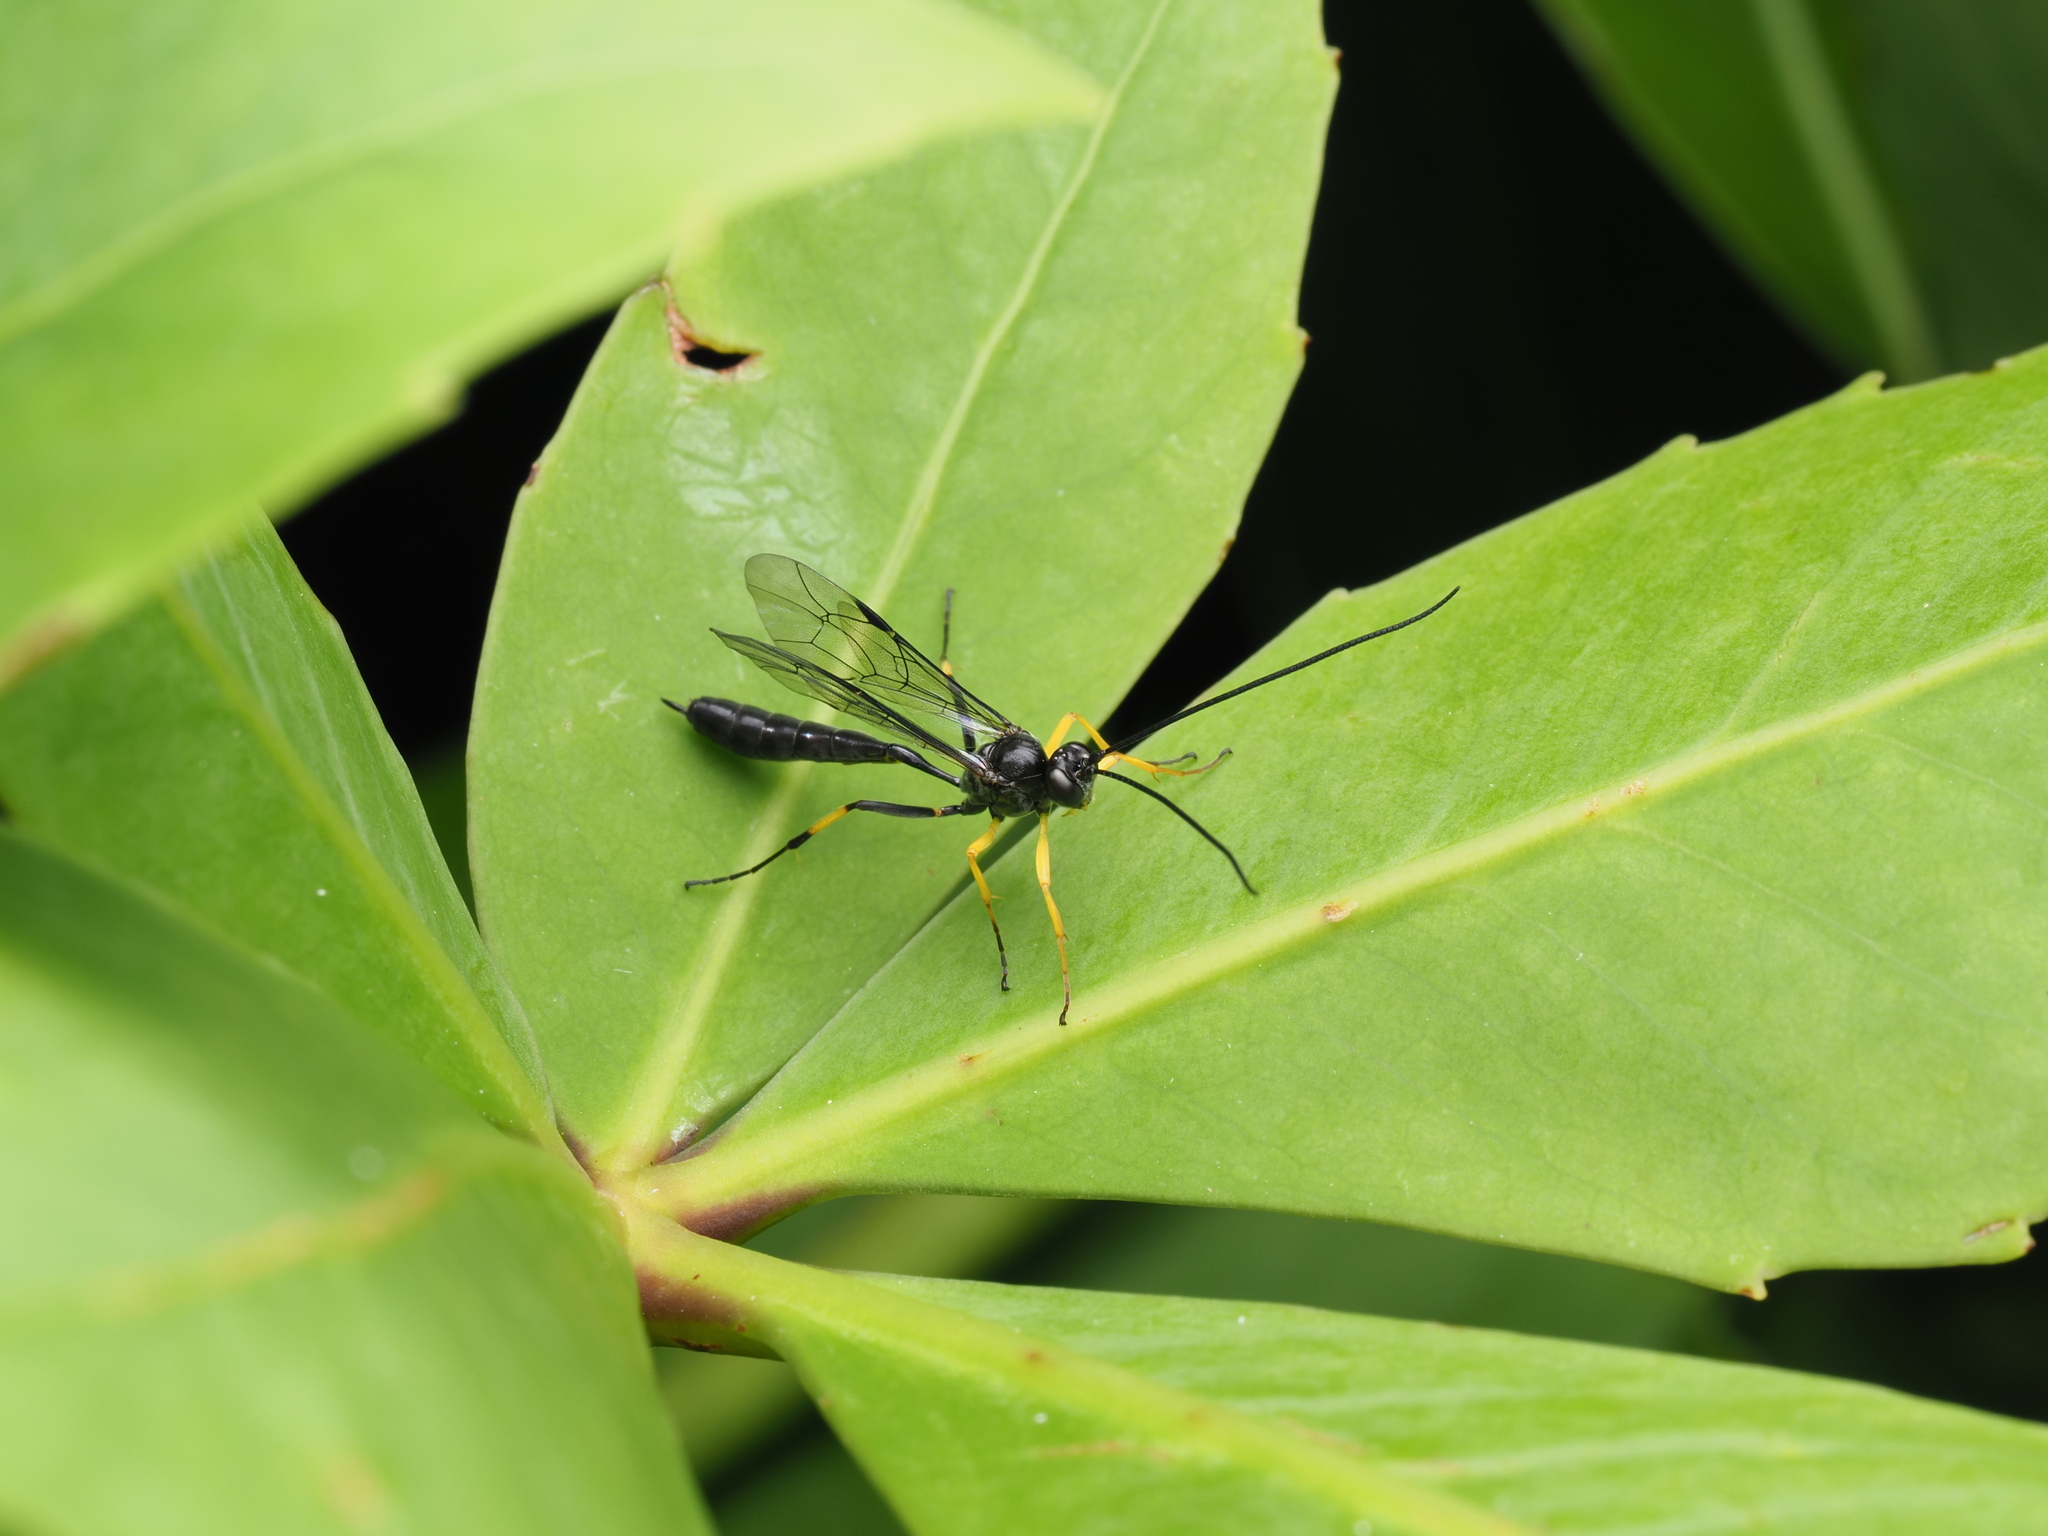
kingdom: Animalia
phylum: Arthropoda
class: Insecta
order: Hymenoptera
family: Ichneumonidae
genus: Dusona
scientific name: Dusona stramineipes
